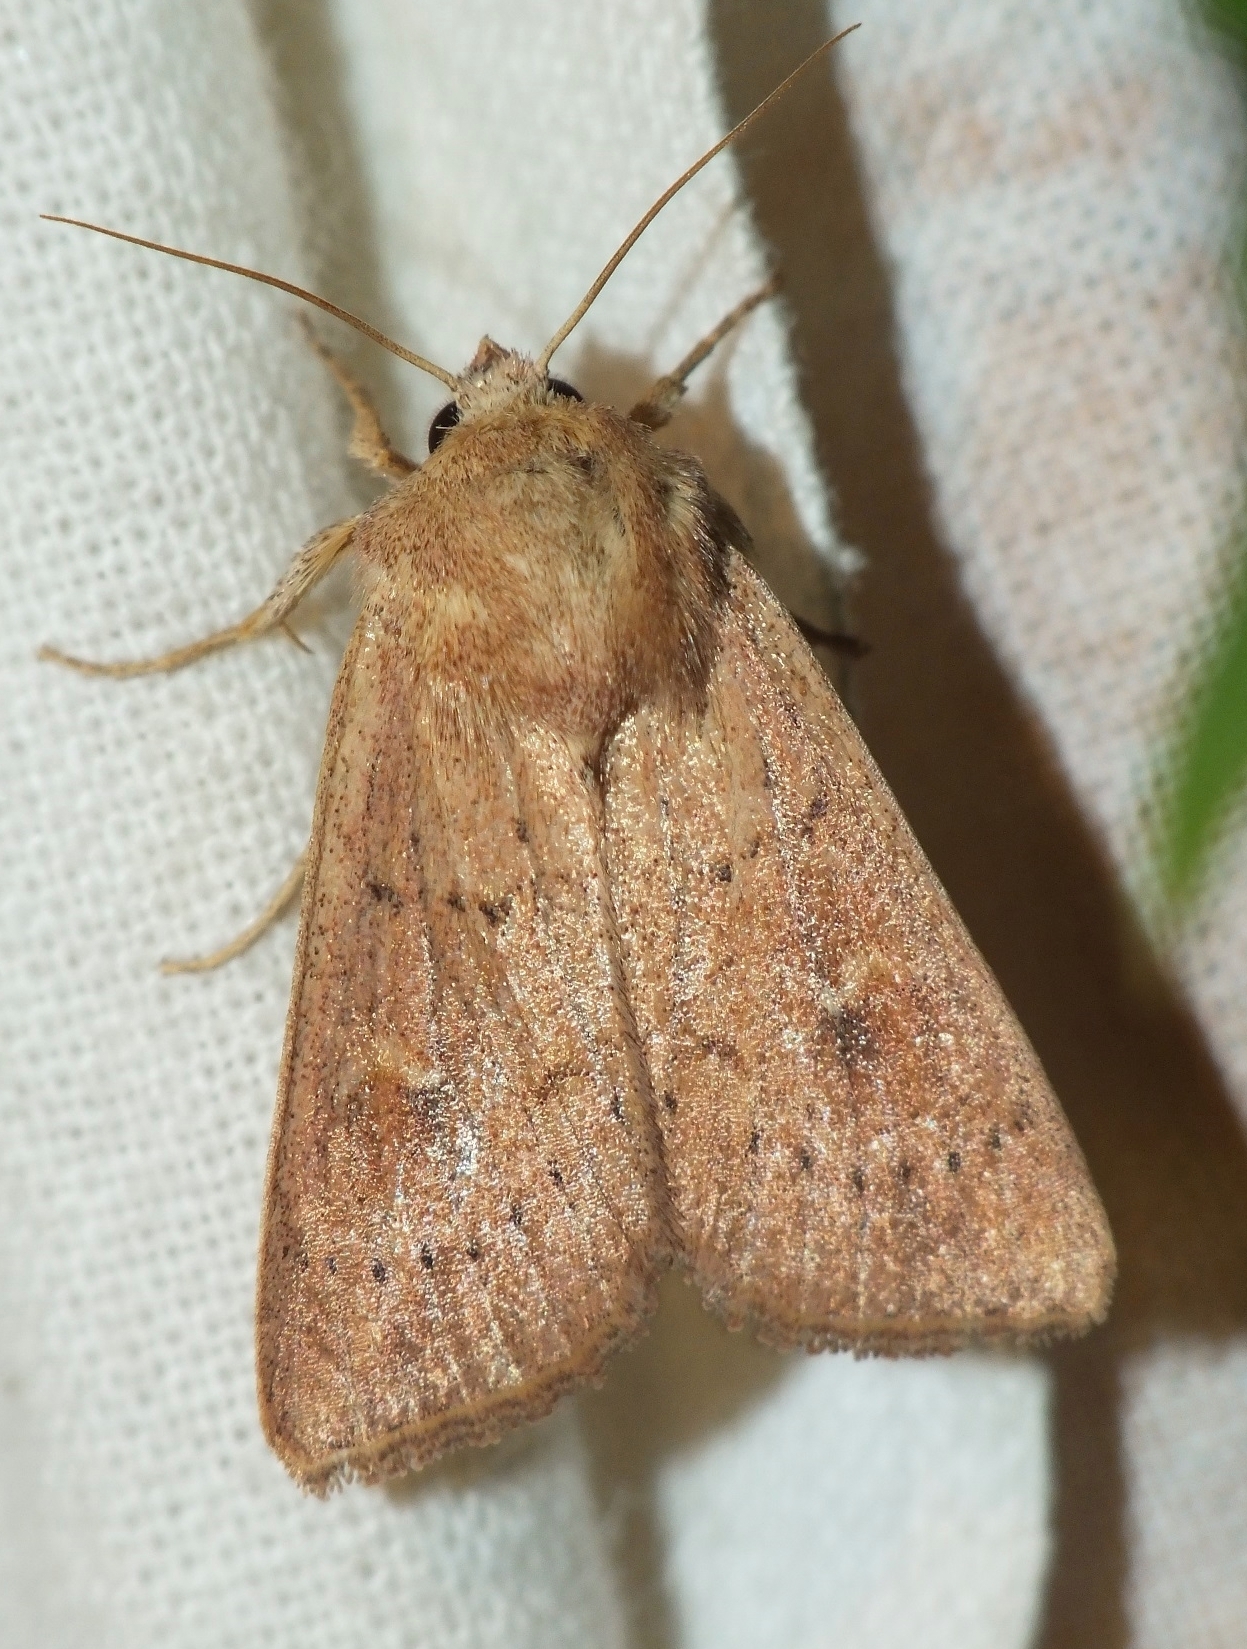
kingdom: Animalia
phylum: Arthropoda
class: Insecta
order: Lepidoptera
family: Noctuidae
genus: Mythimna
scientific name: Mythimna ferrago
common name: Clay
